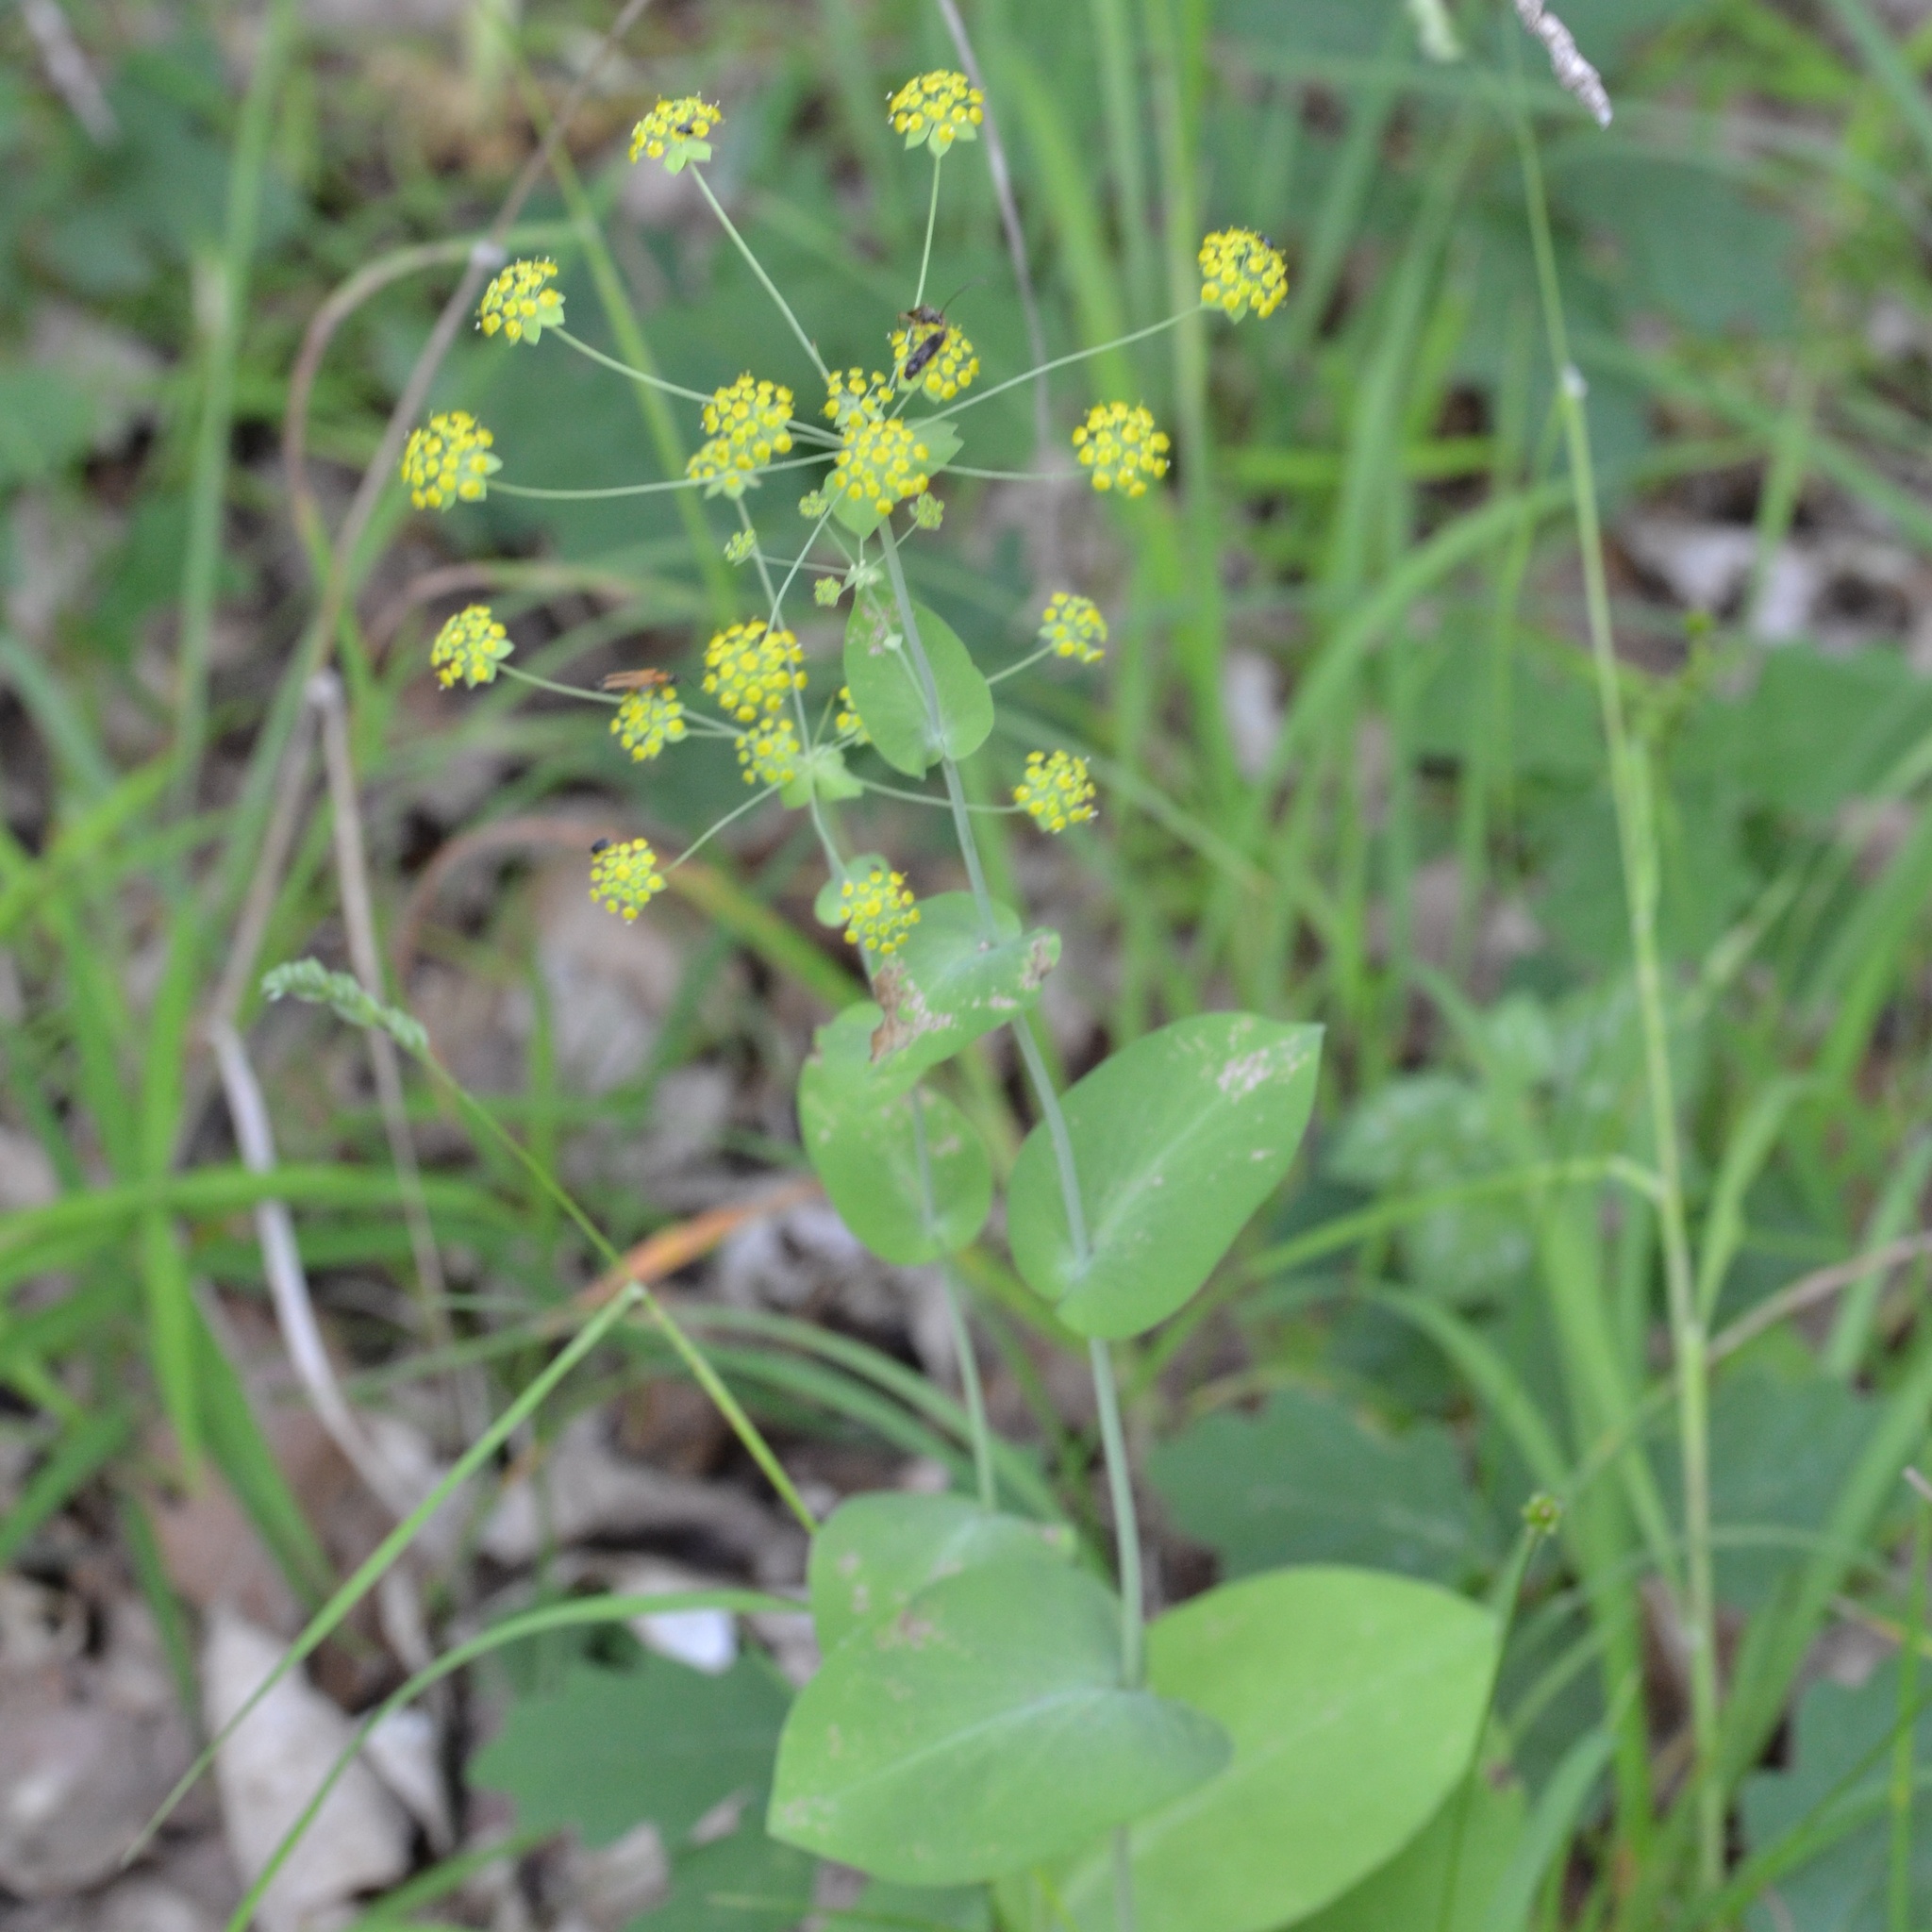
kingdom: Plantae
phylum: Tracheophyta
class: Magnoliopsida
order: Apiales
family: Apiaceae
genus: Bupleurum
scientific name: Bupleurum longifolium
